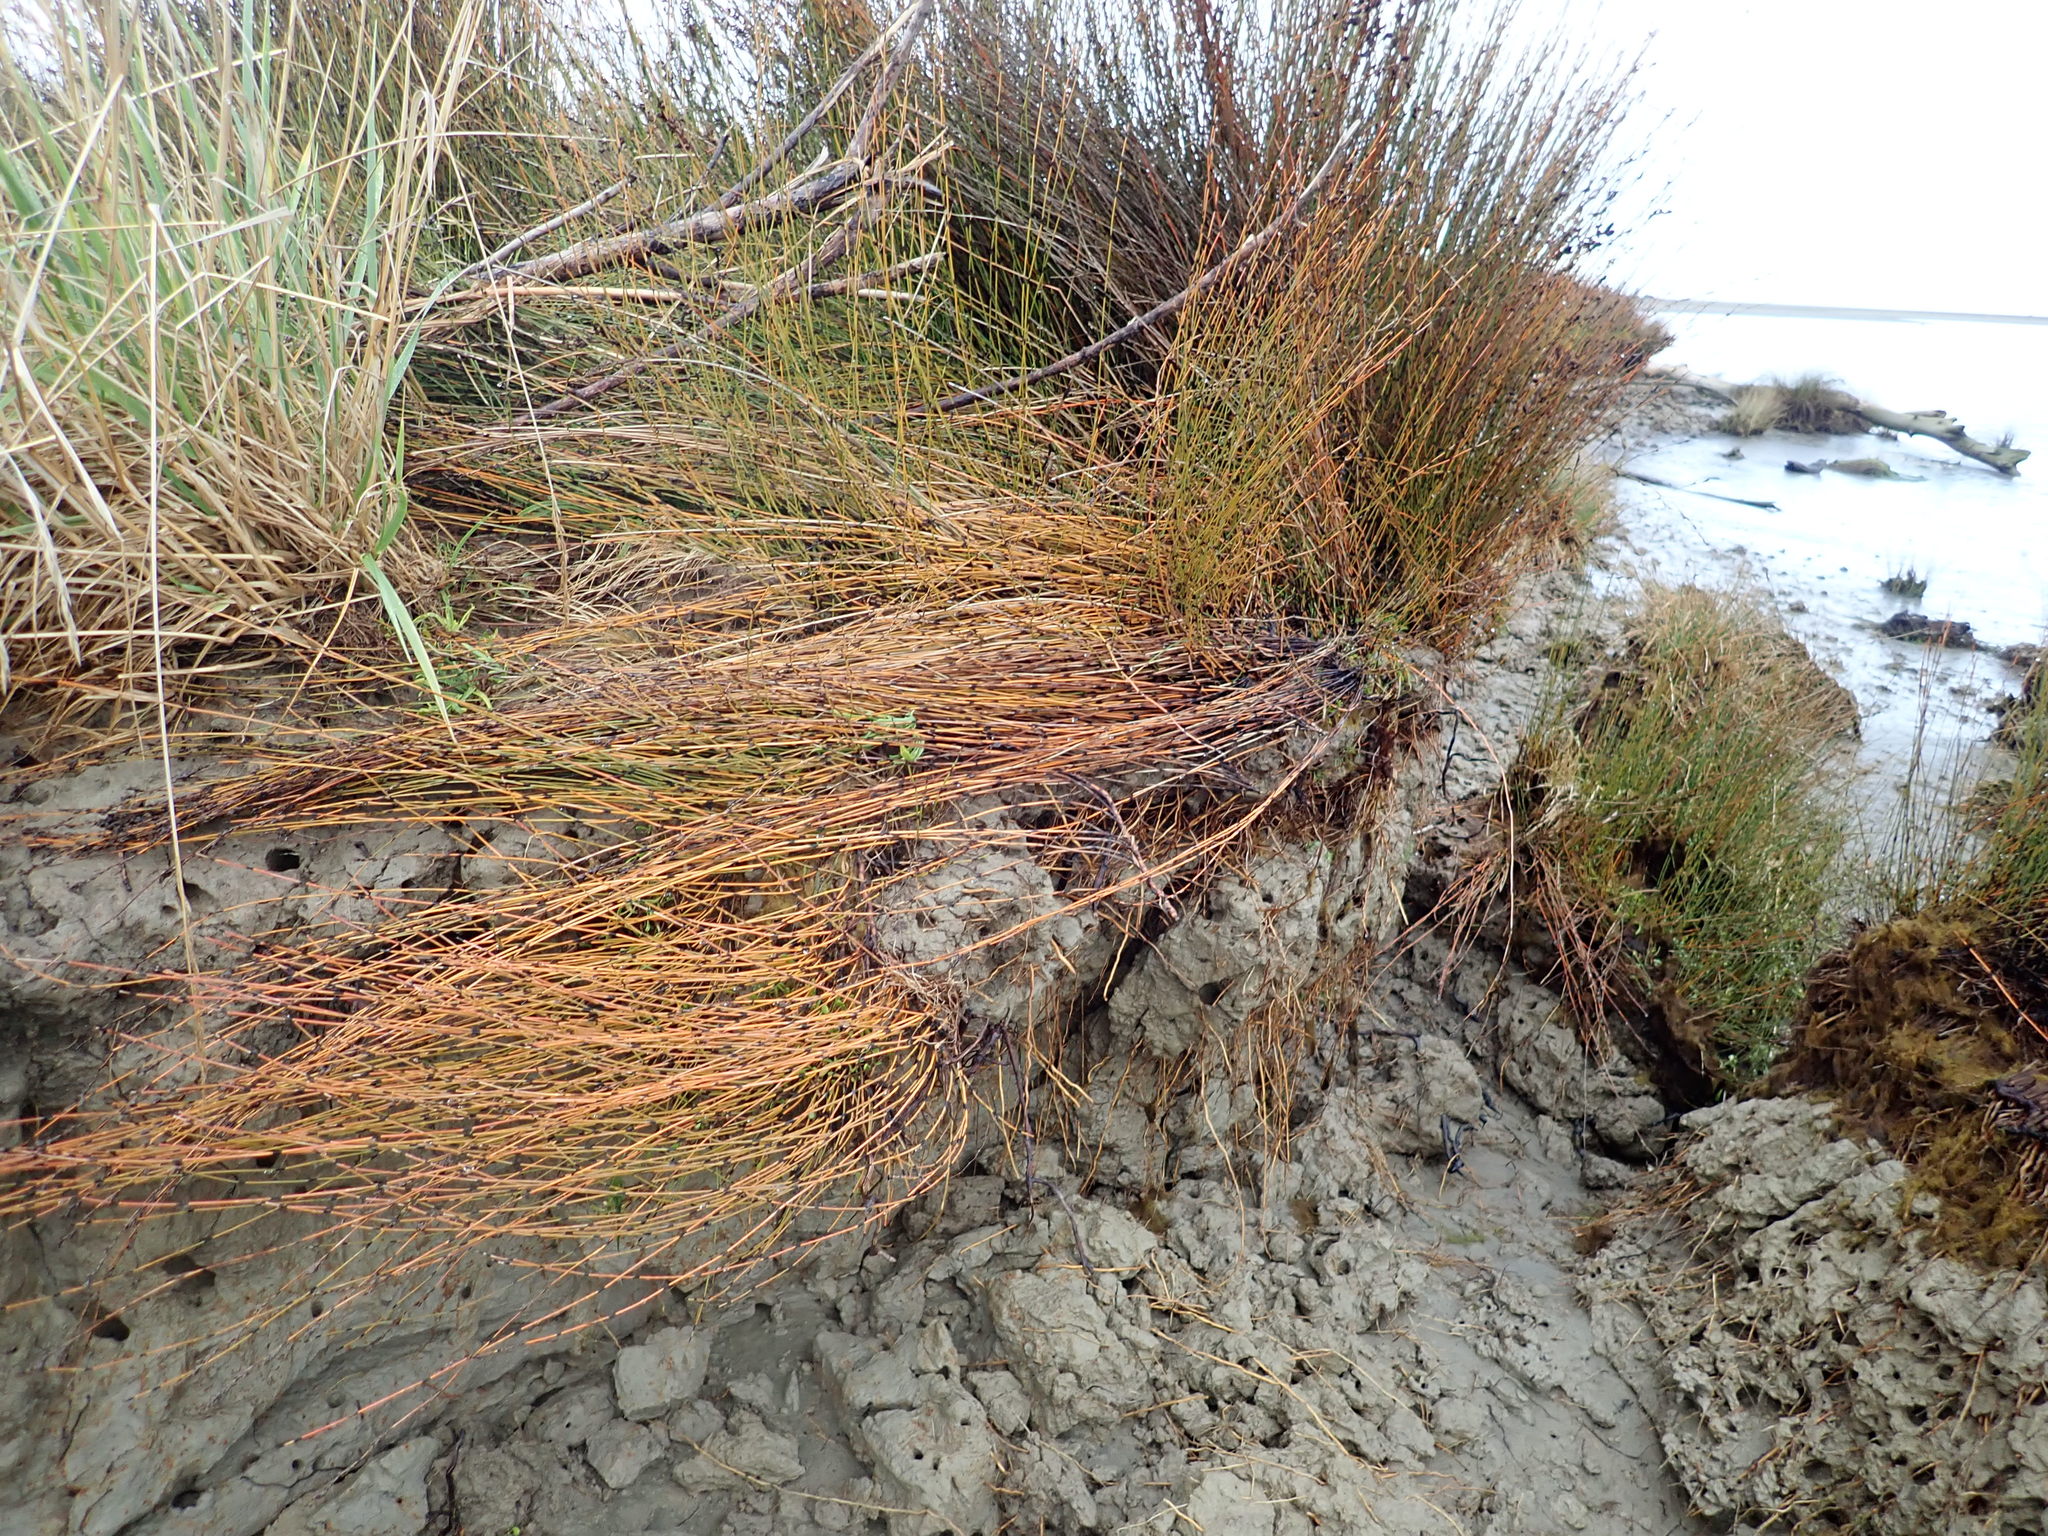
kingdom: Plantae
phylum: Tracheophyta
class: Liliopsida
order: Poales
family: Restionaceae
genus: Apodasmia
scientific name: Apodasmia similis
